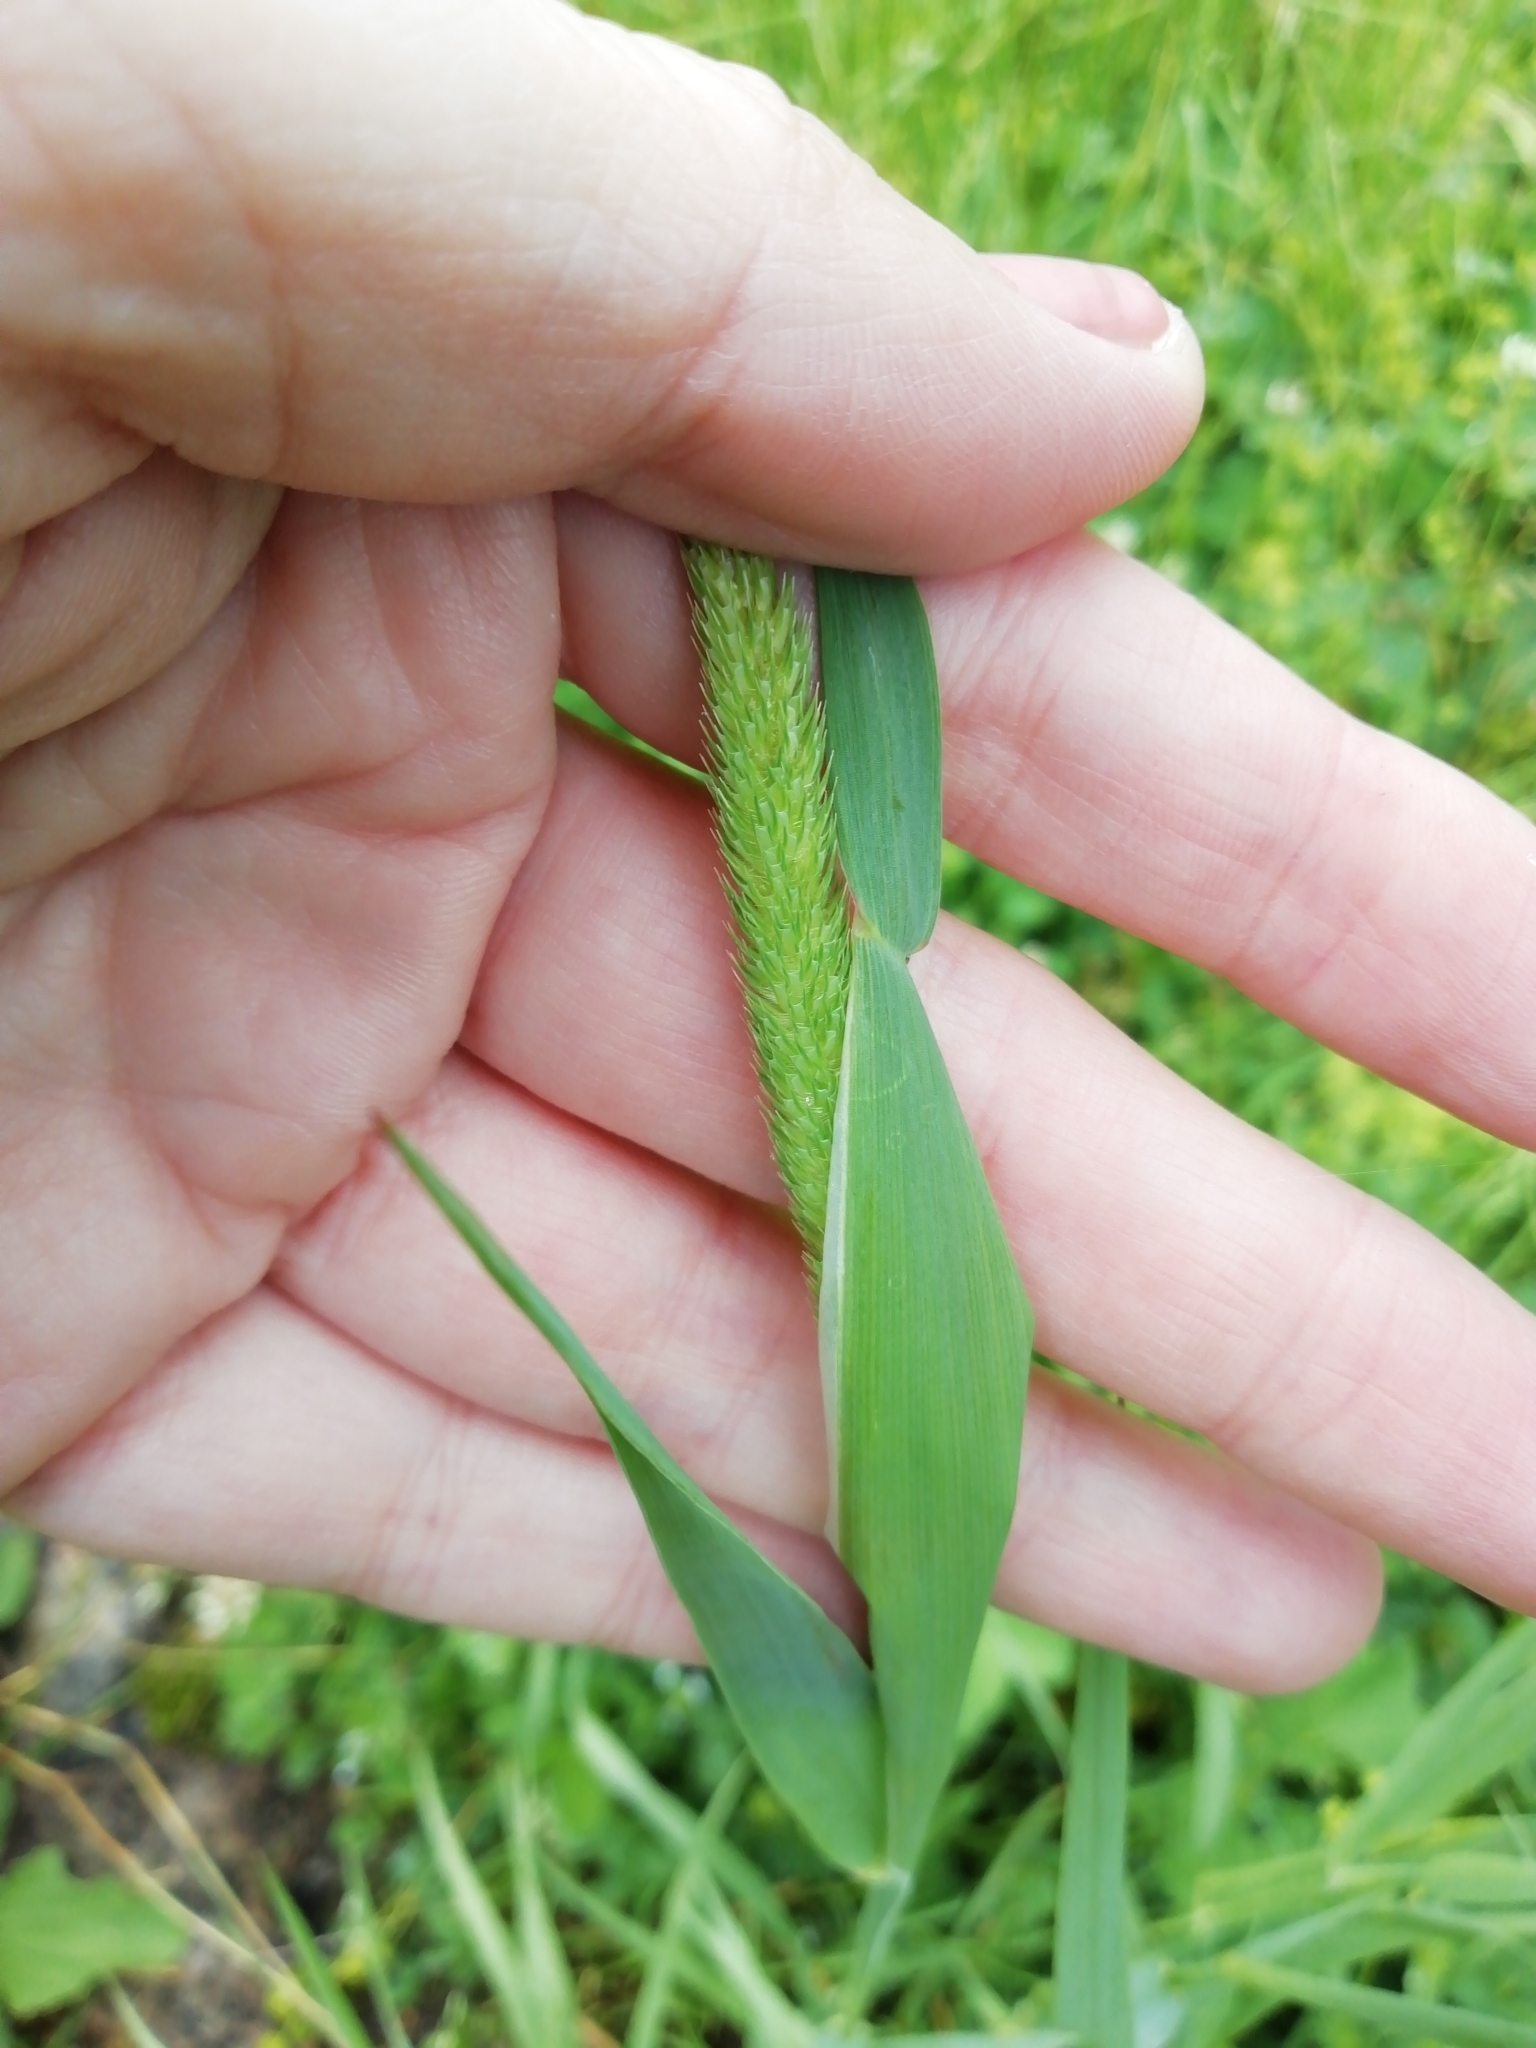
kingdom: Plantae
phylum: Tracheophyta
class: Liliopsida
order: Poales
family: Poaceae
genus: Phleum
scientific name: Phleum pratense
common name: Timothy grass
